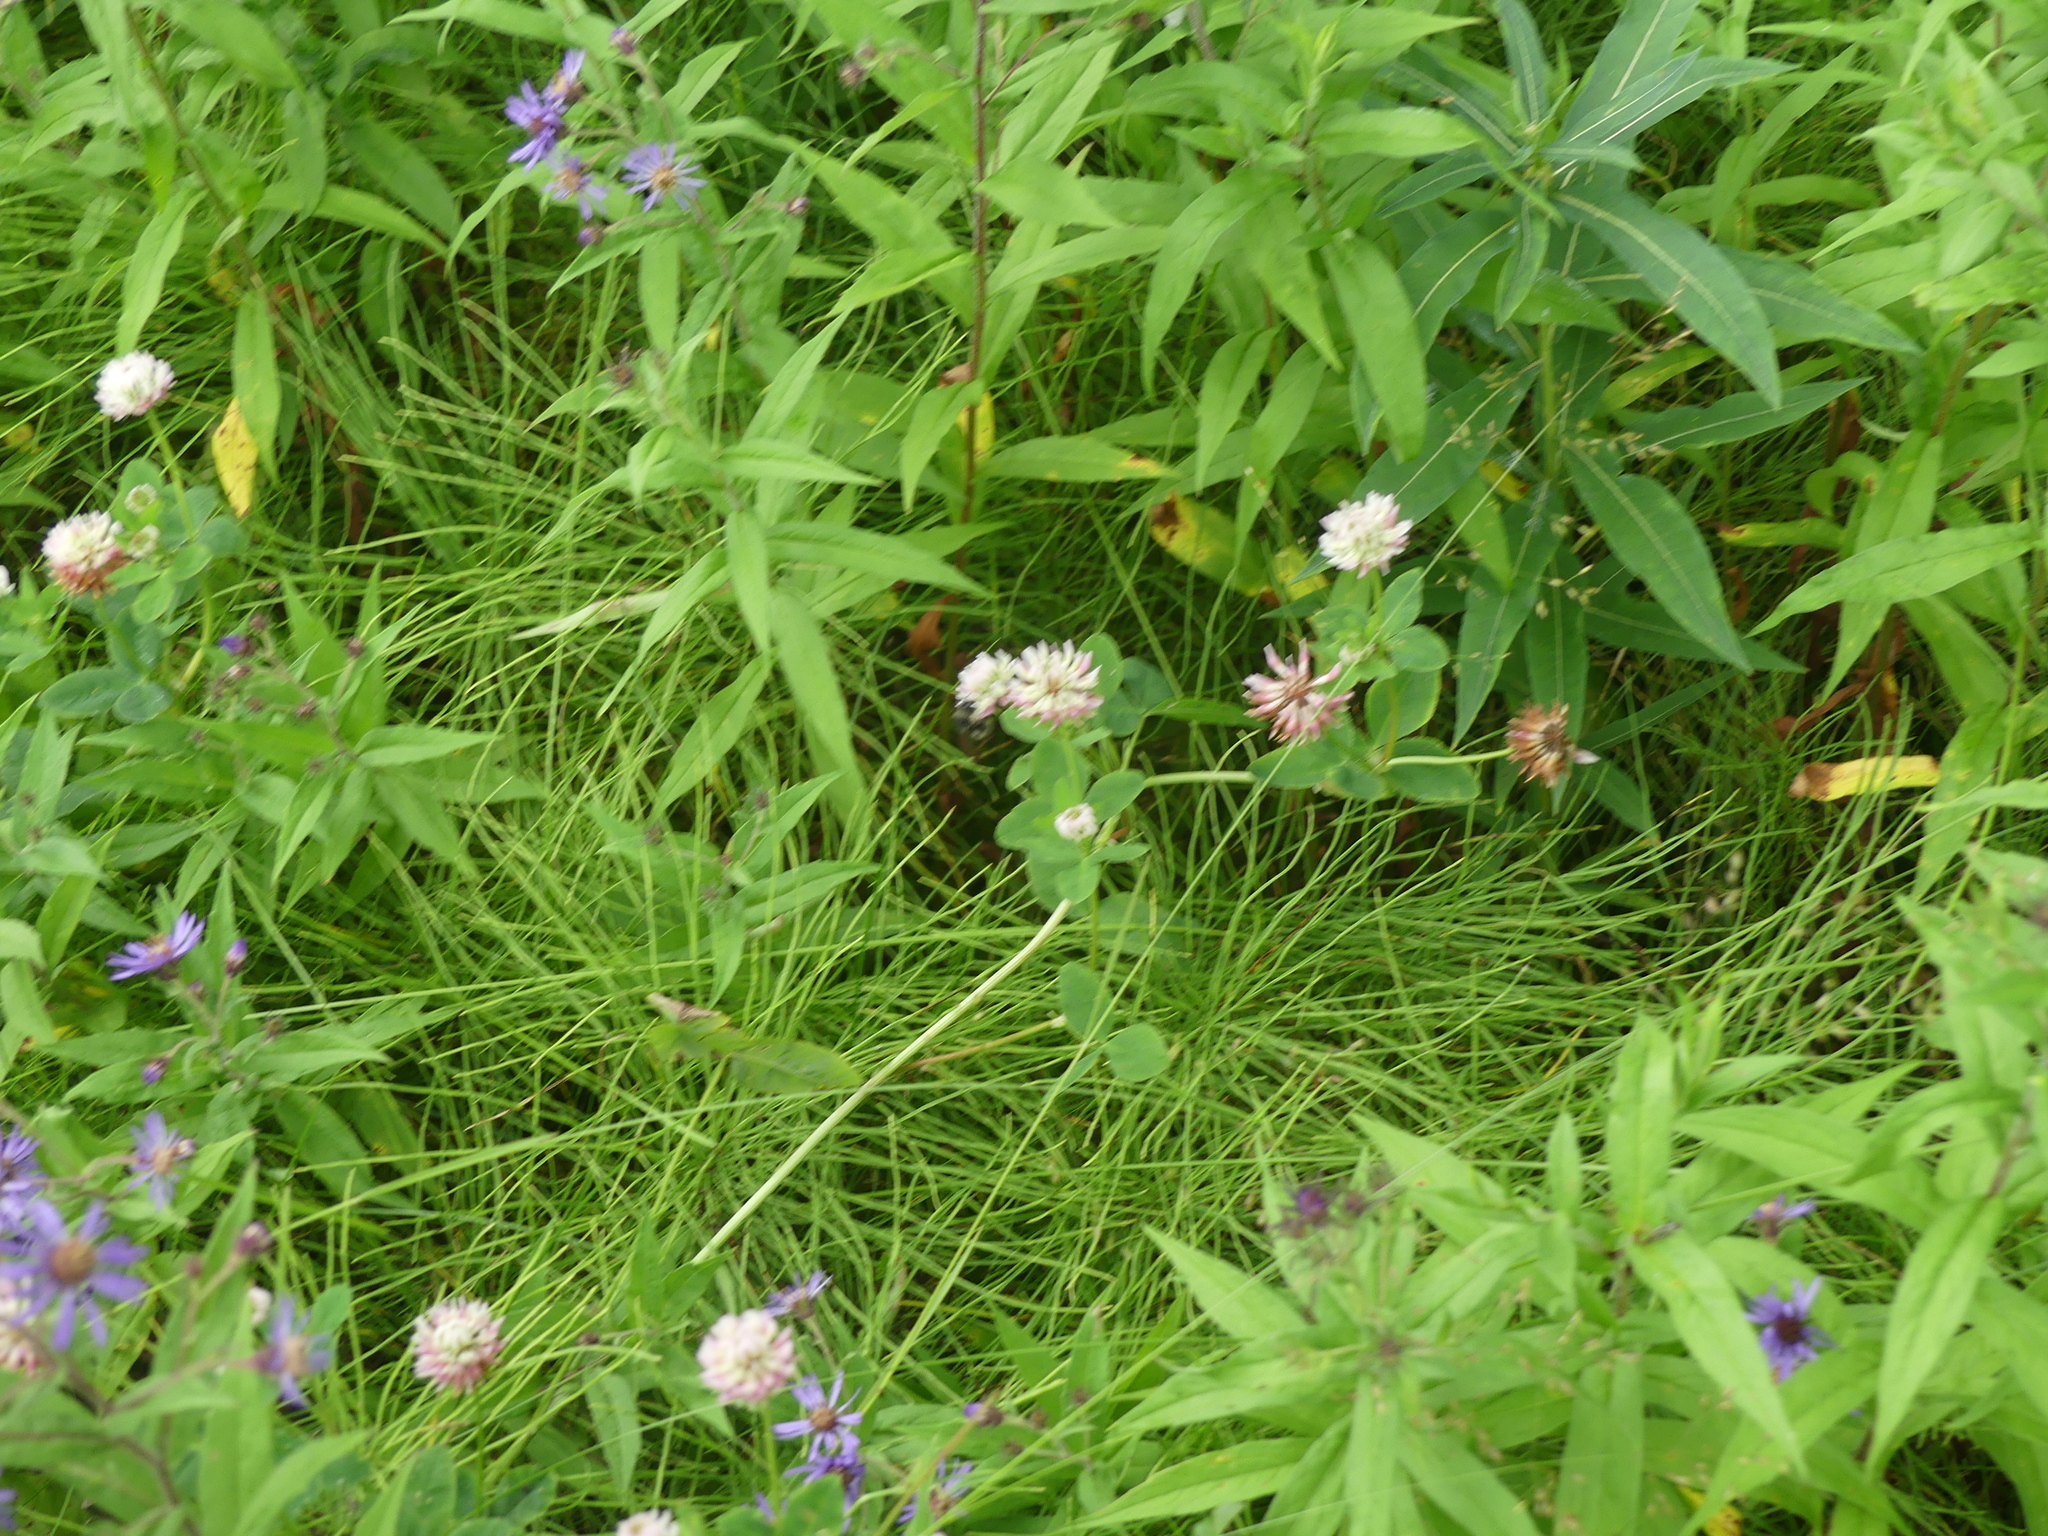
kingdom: Plantae
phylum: Tracheophyta
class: Magnoliopsida
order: Fabales
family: Fabaceae
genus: Trifolium
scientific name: Trifolium hybridum
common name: Alsike clover
